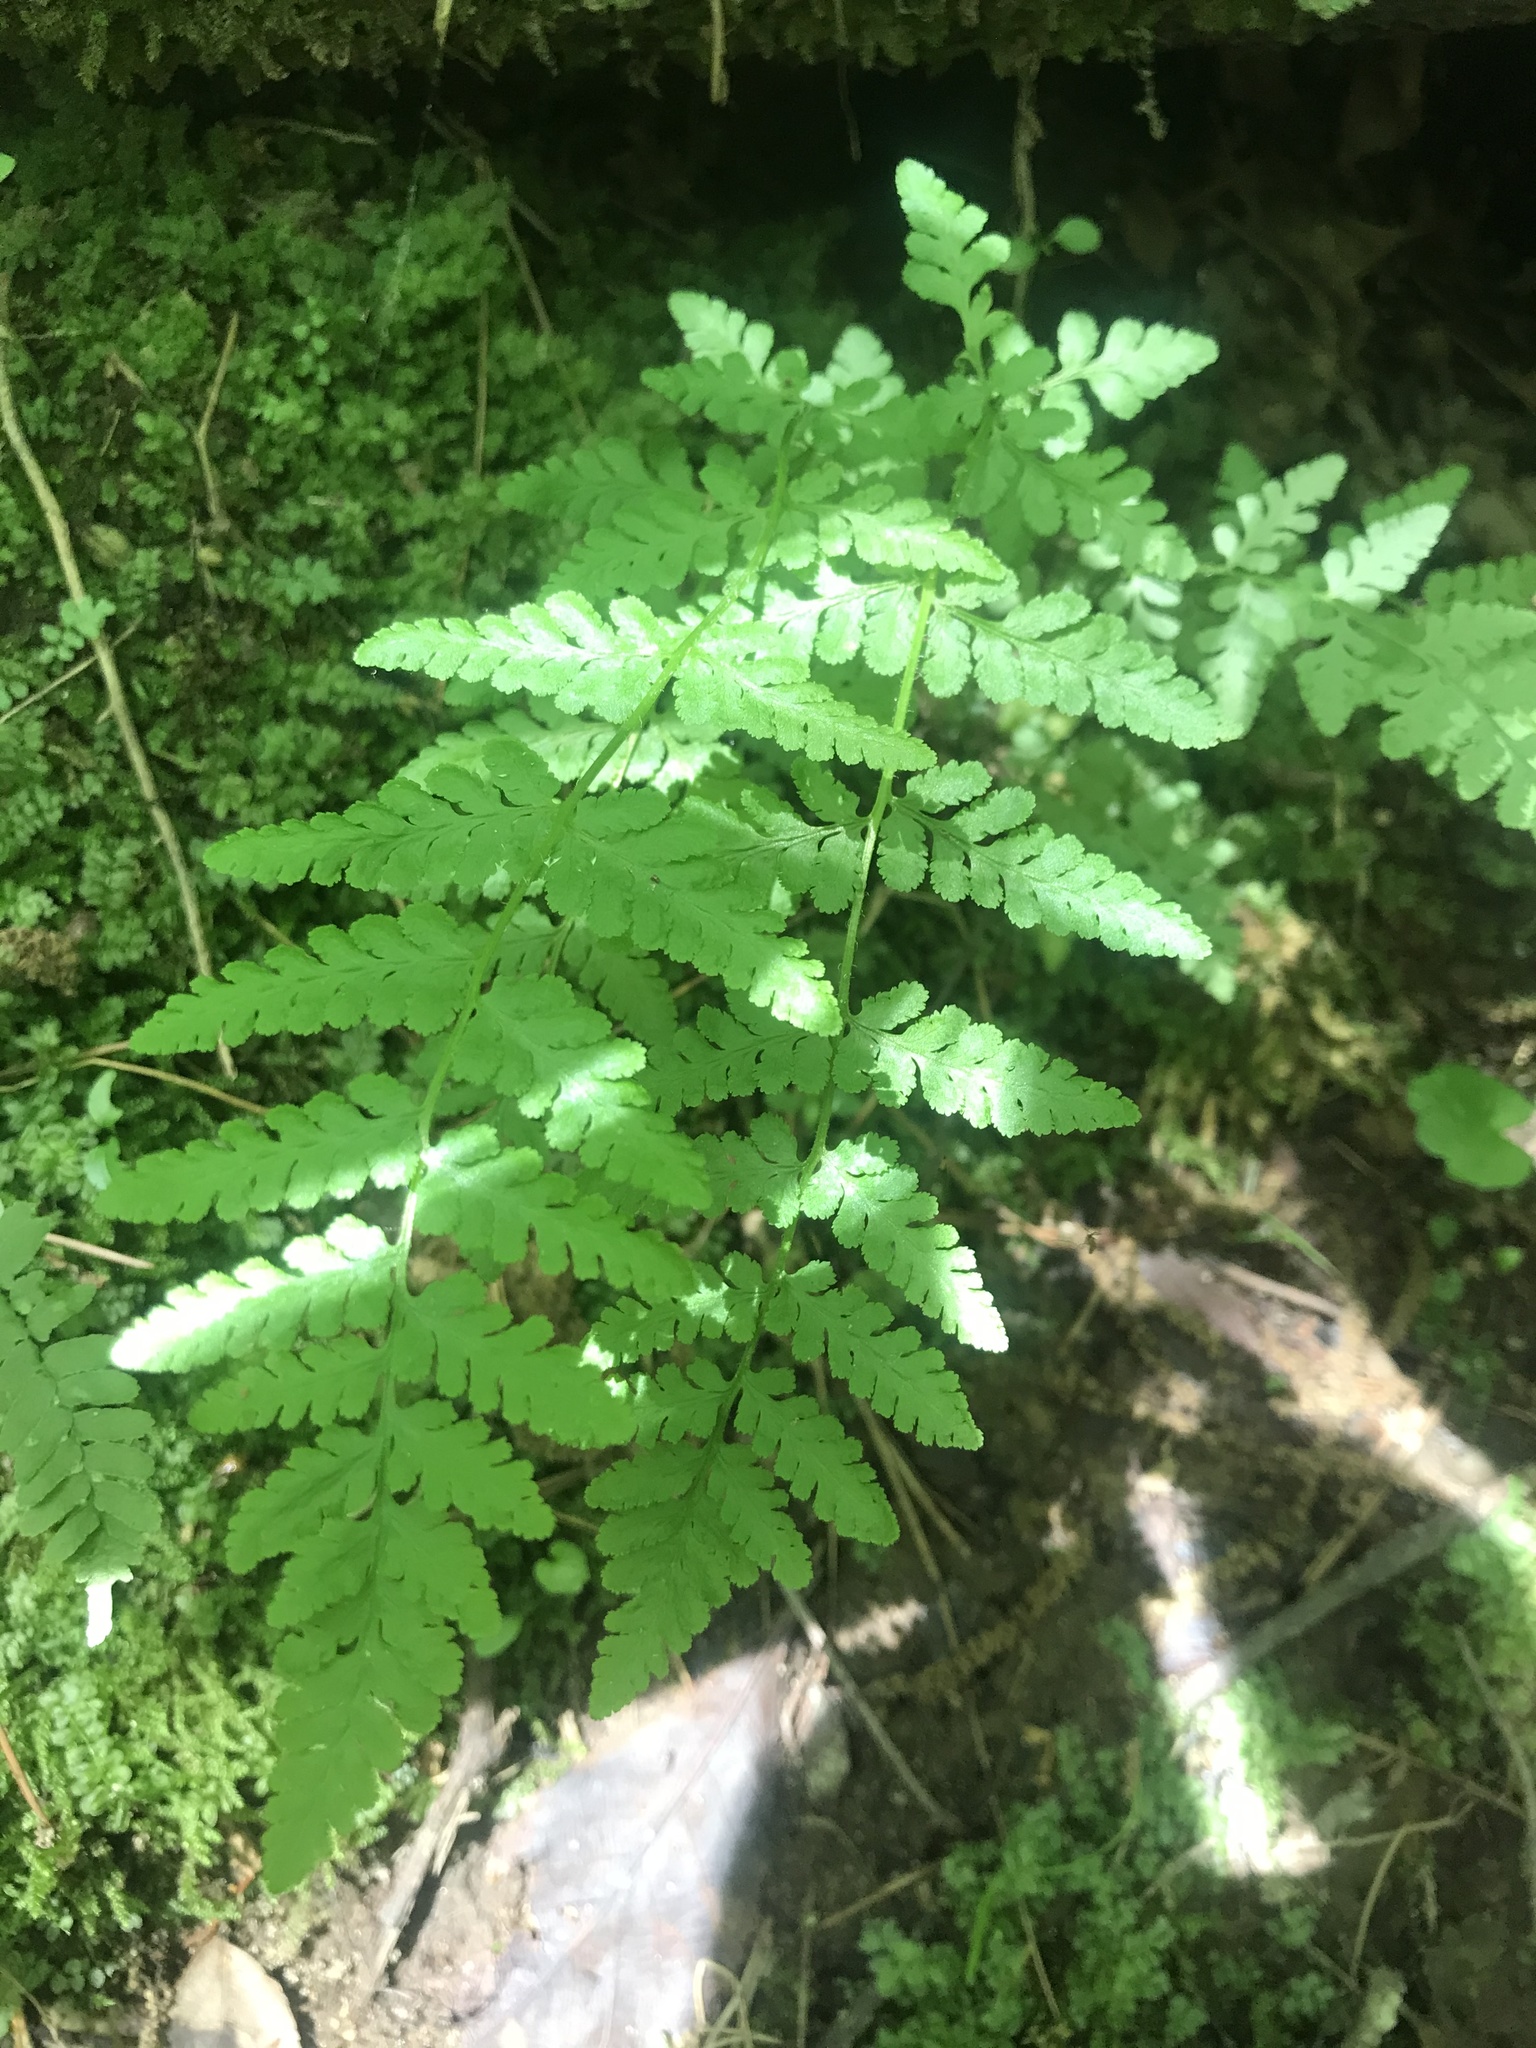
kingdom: Plantae
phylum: Tracheophyta
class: Polypodiopsida
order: Polypodiales
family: Woodsiaceae
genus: Physematium
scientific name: Physematium obtusum
